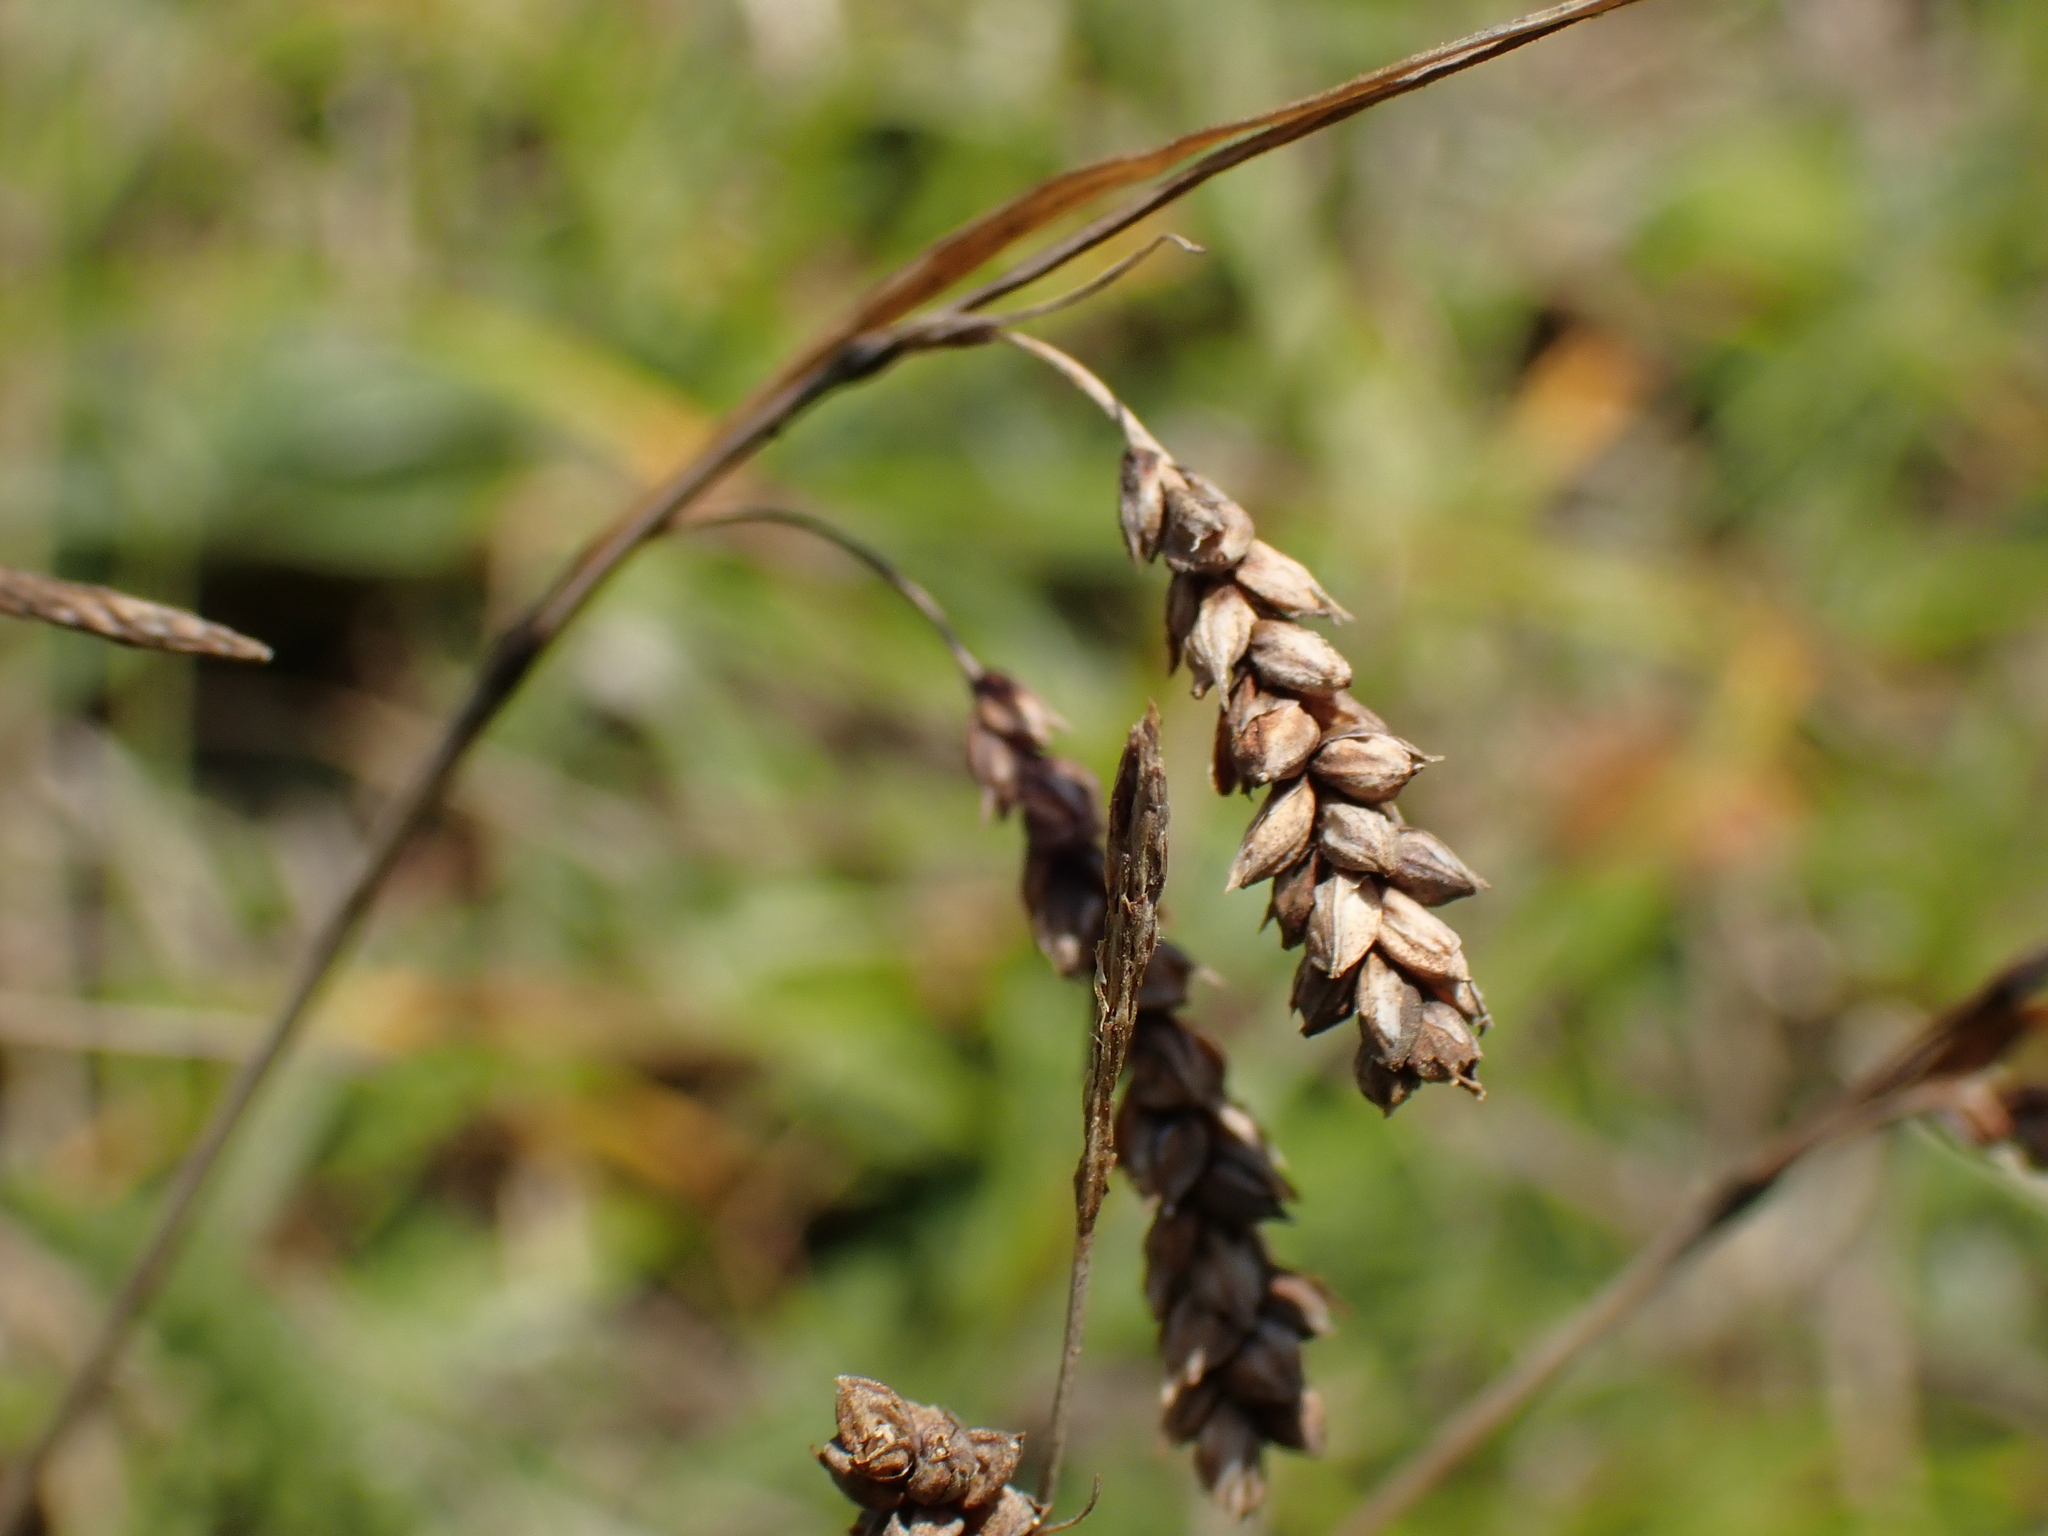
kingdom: Plantae
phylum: Tracheophyta
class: Liliopsida
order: Poales
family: Cyperaceae
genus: Carex
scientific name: Carex flacca
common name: Glaucous sedge
